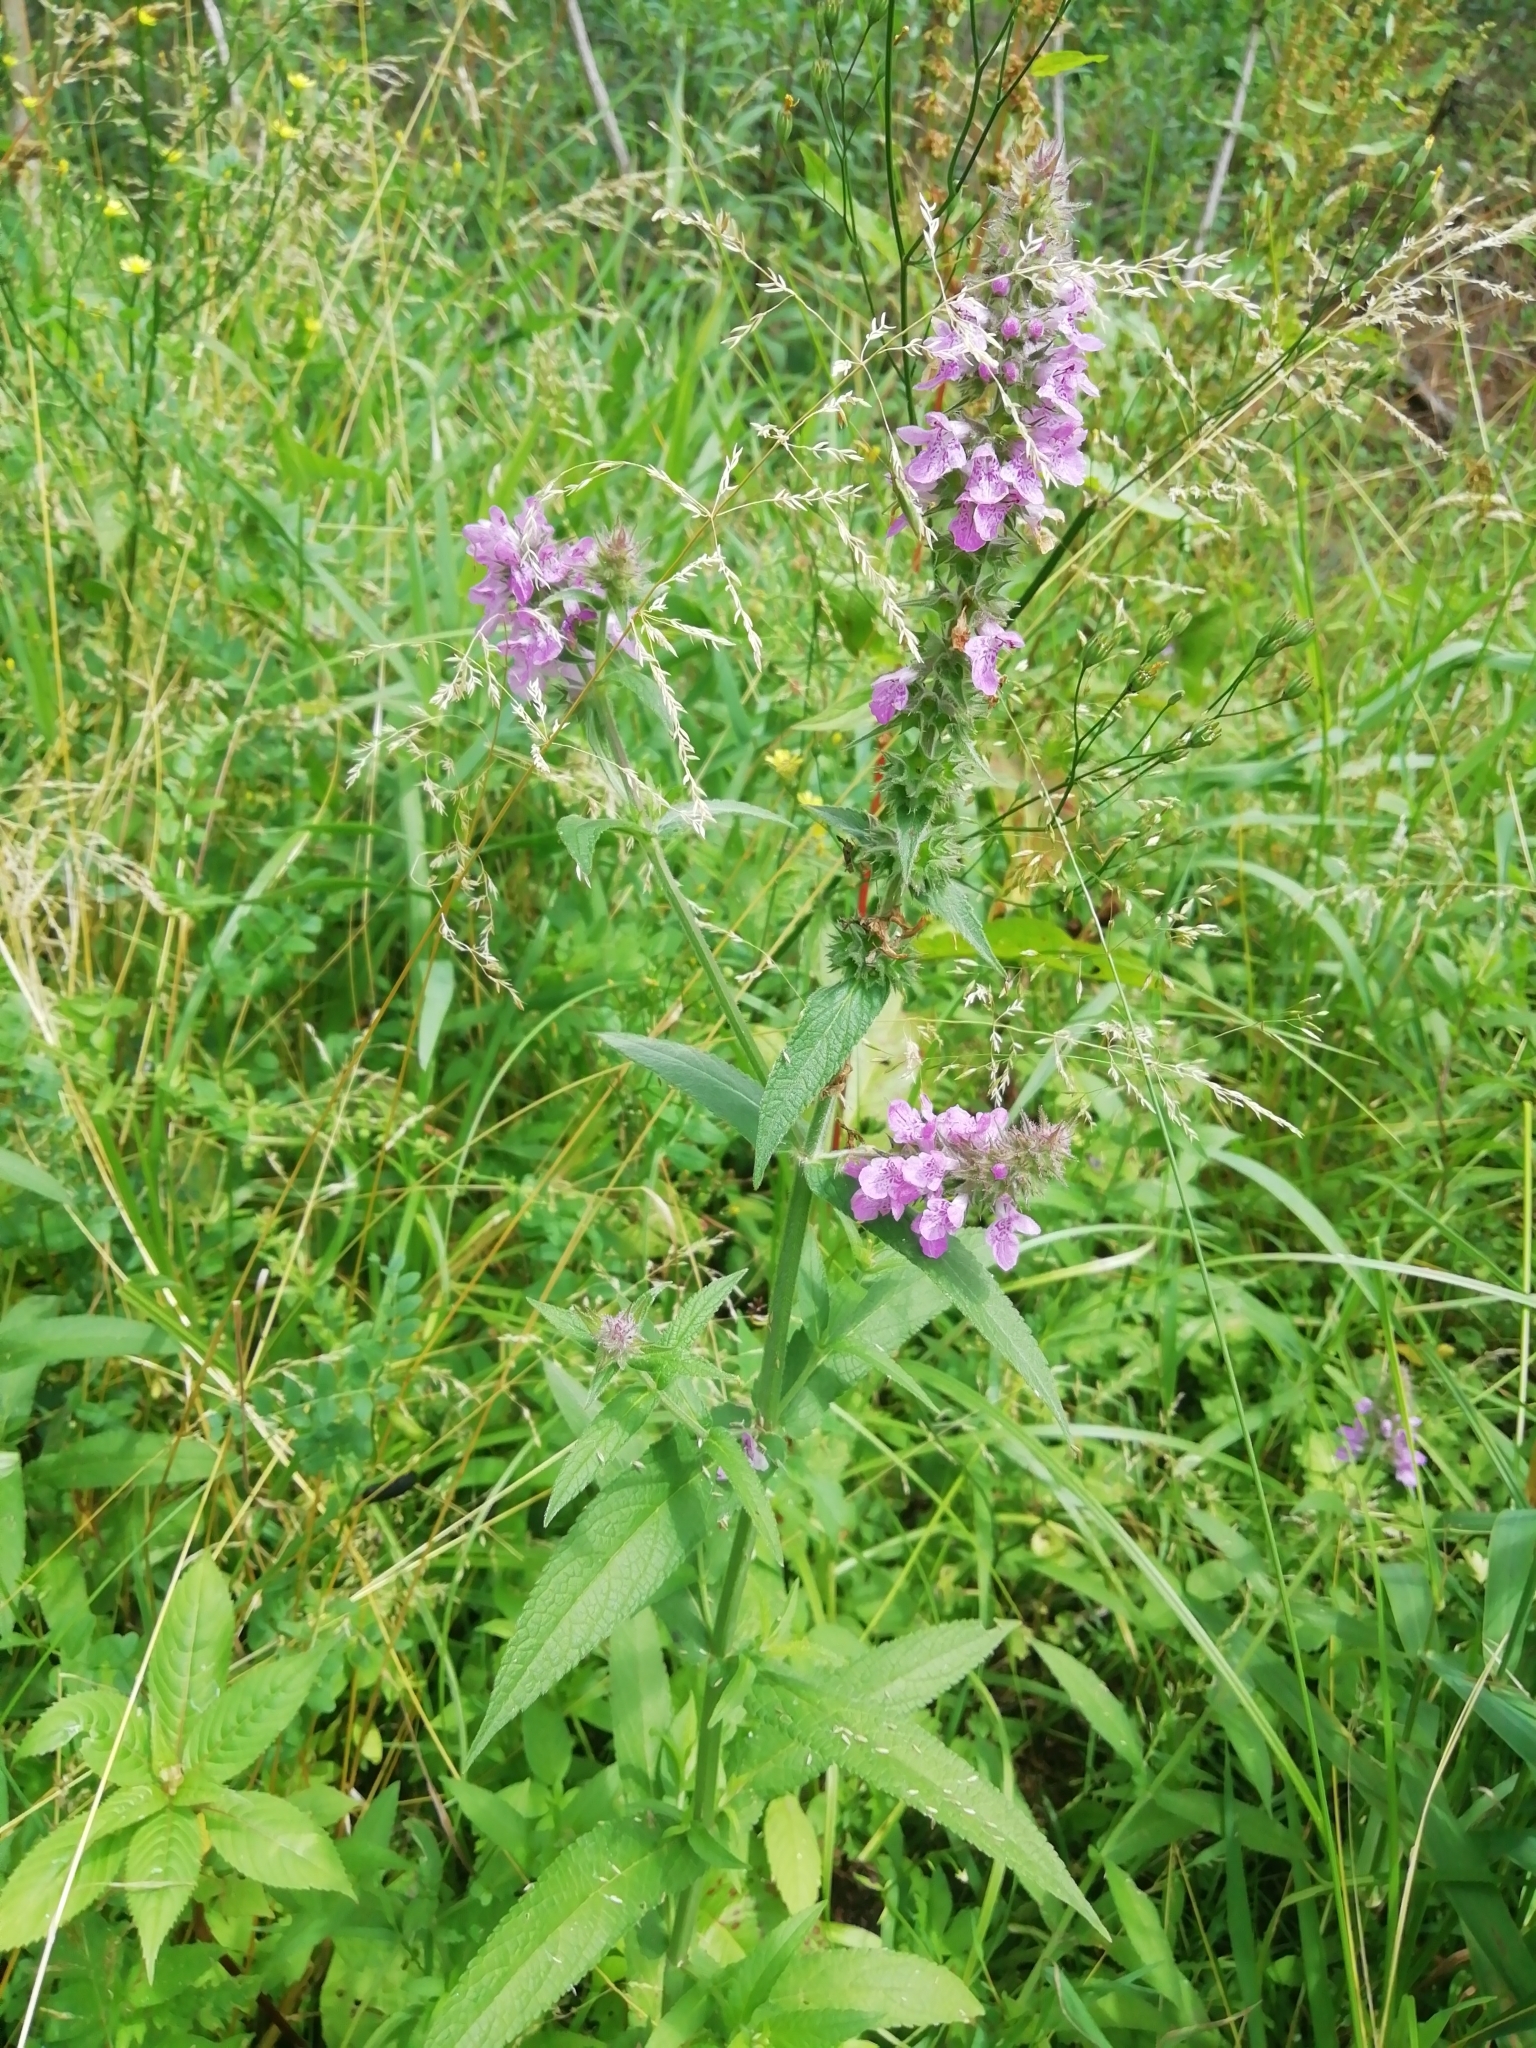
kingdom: Plantae
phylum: Tracheophyta
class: Magnoliopsida
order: Lamiales
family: Lamiaceae
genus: Stachys
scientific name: Stachys palustris
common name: Marsh woundwort
